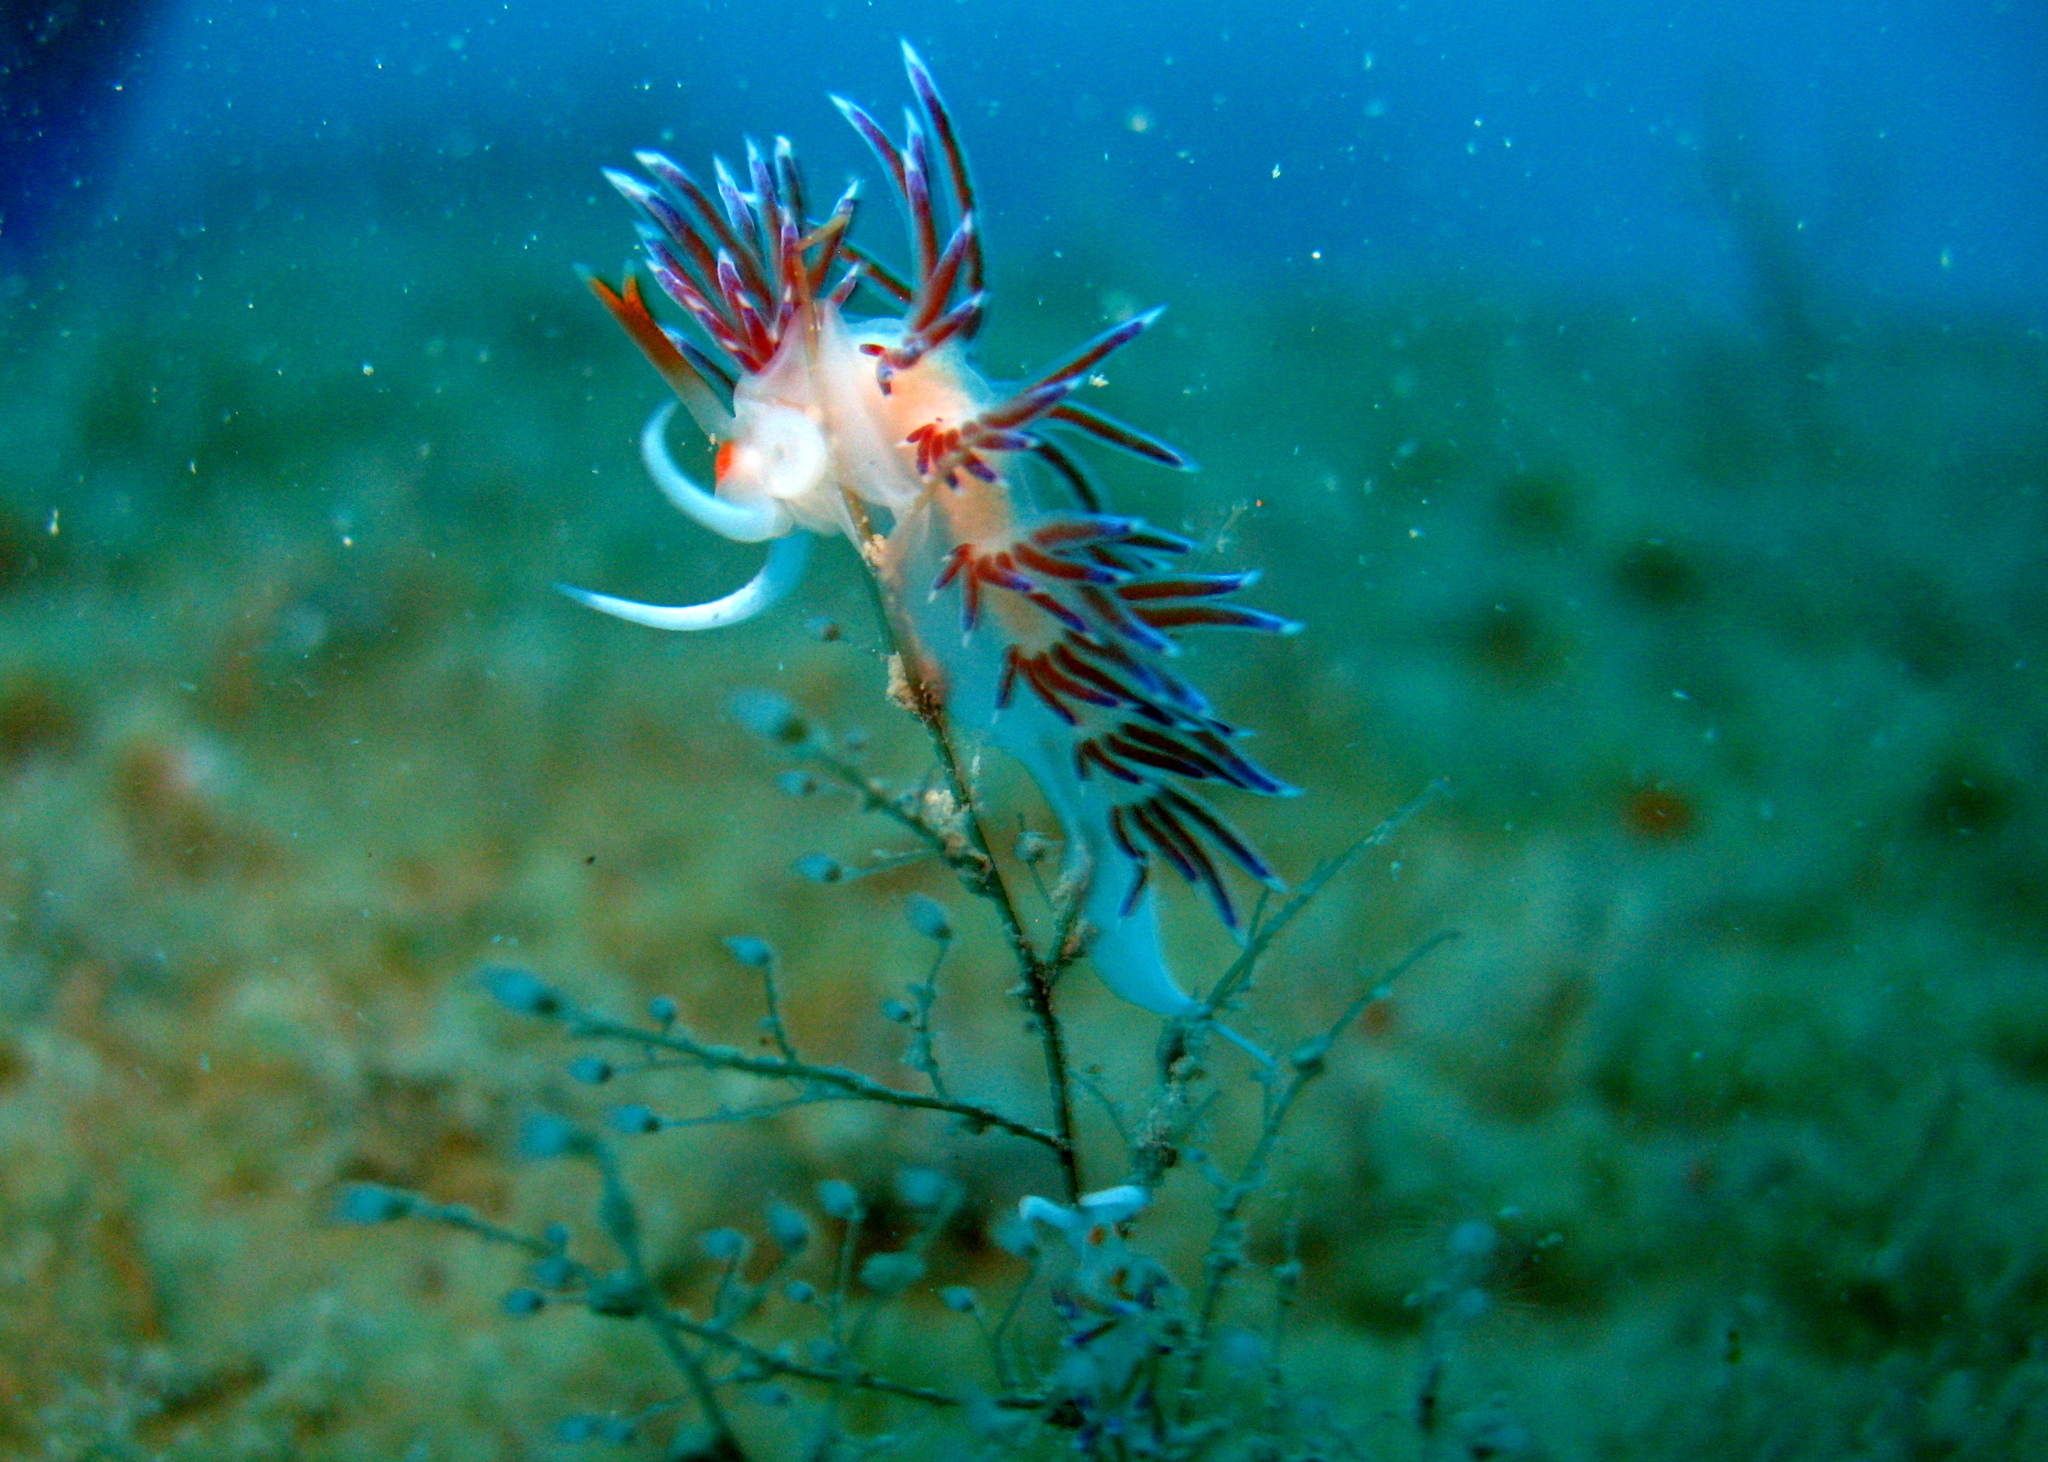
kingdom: Animalia
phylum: Mollusca
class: Gastropoda
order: Nudibranchia
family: Facelinidae
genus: Cratena
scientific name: Cratena peregrina
